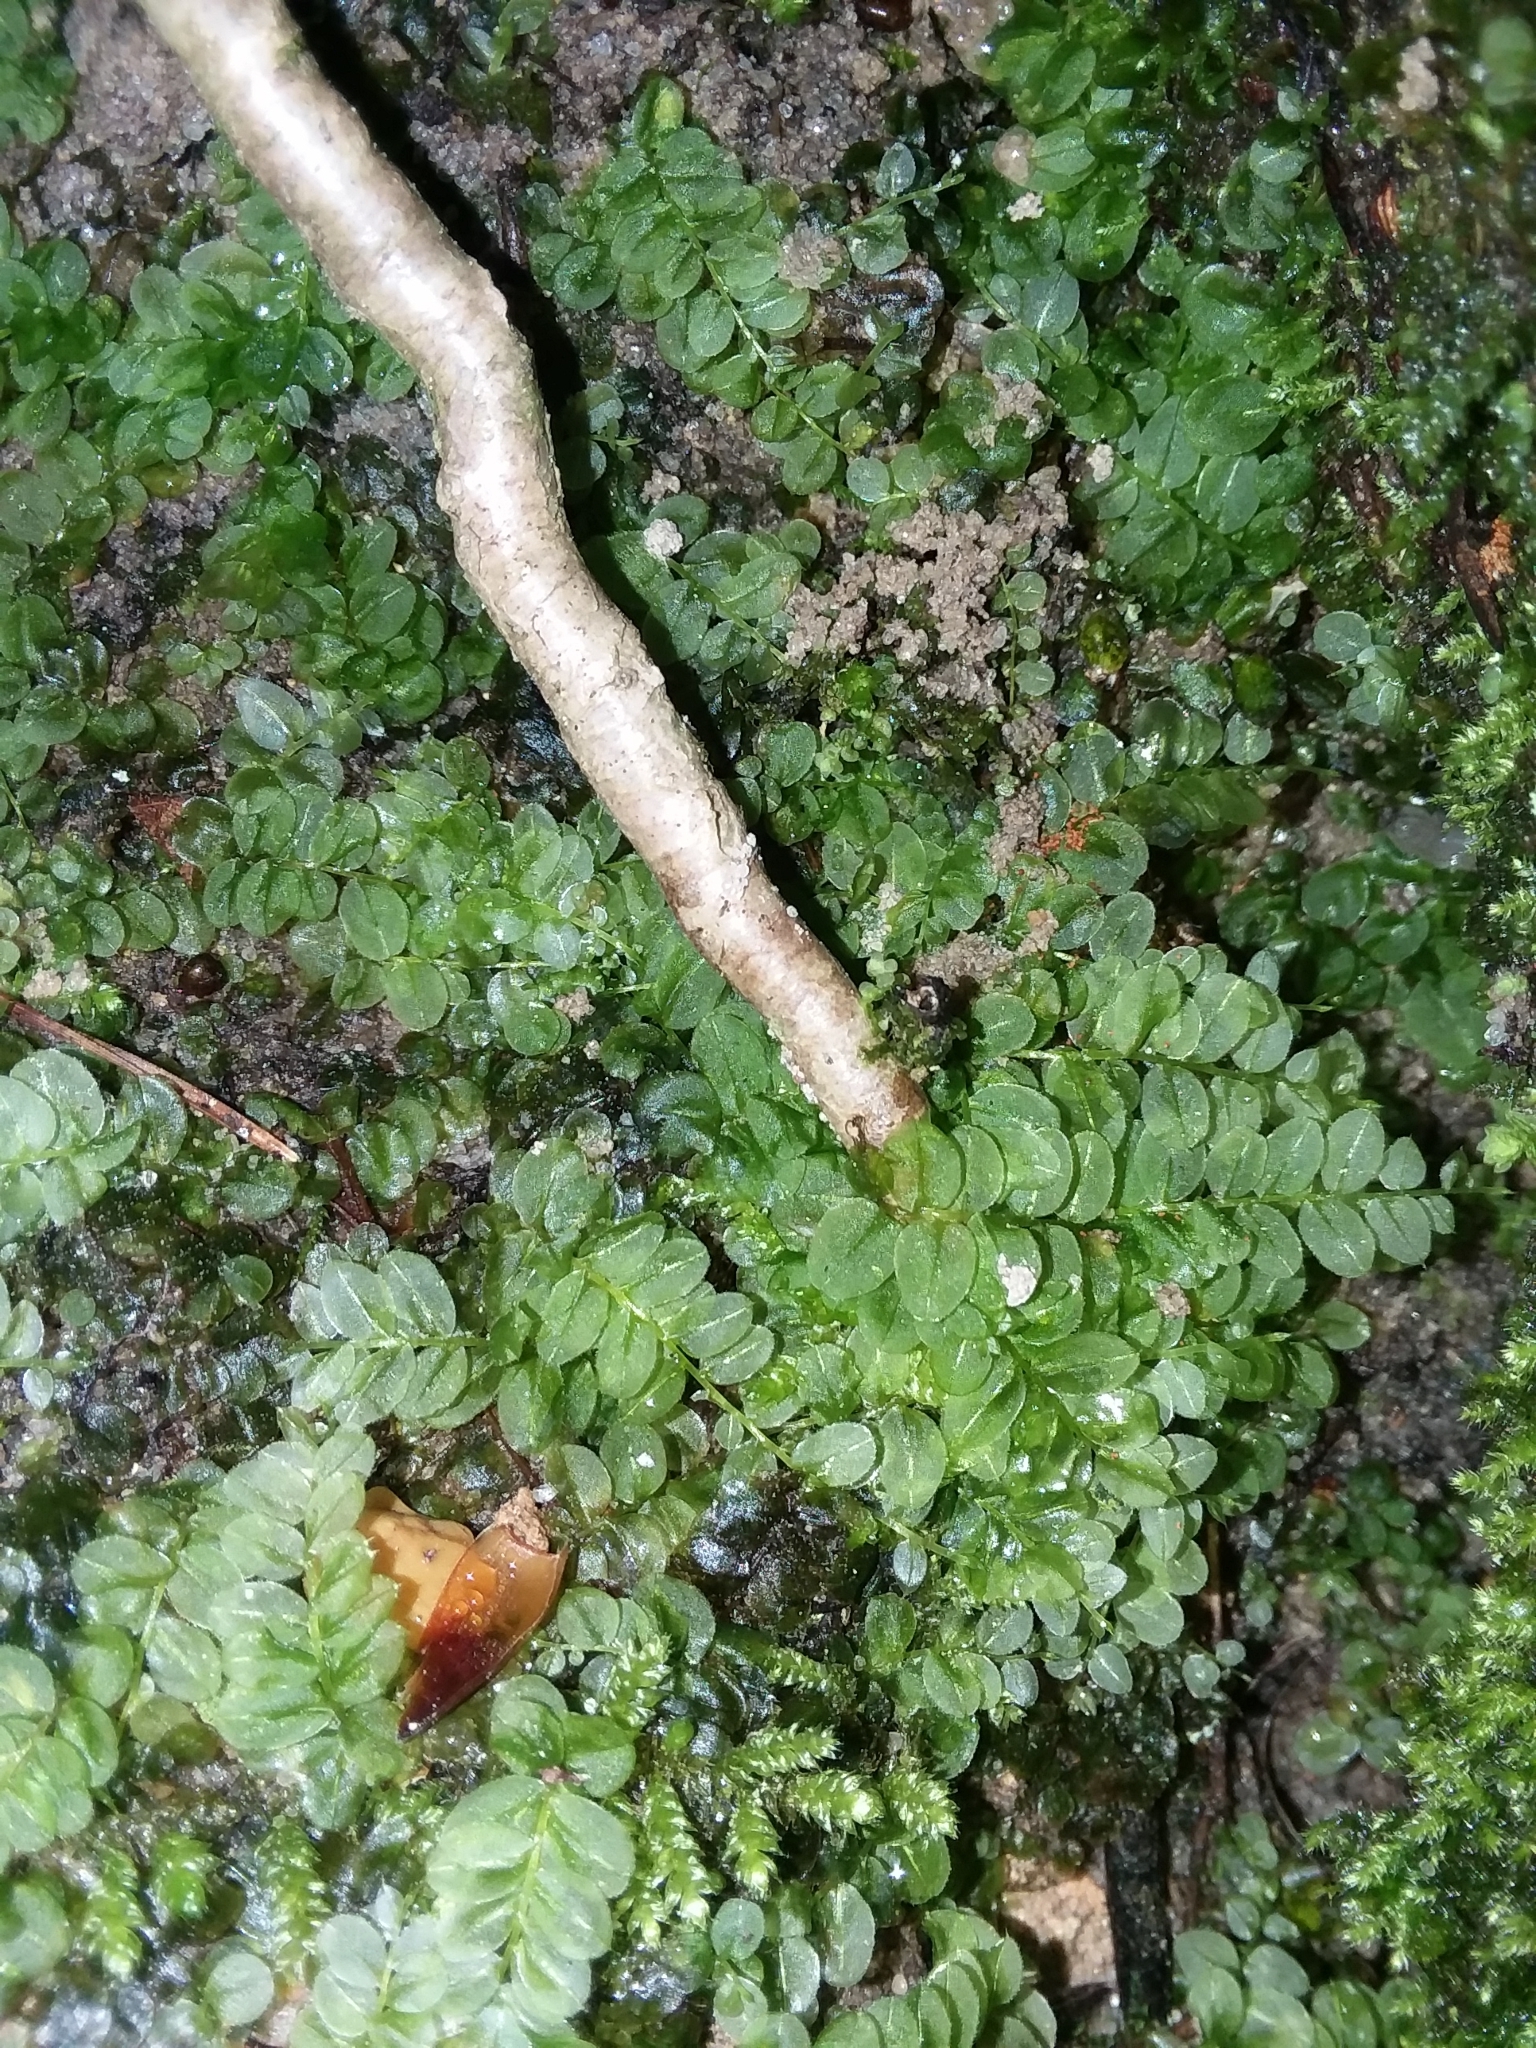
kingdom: Plantae
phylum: Bryophyta
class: Bryopsida
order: Bryales
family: Mniaceae
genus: Plagiomnium
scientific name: Plagiomnium cuspidatum
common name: Woodsy leafy moss
